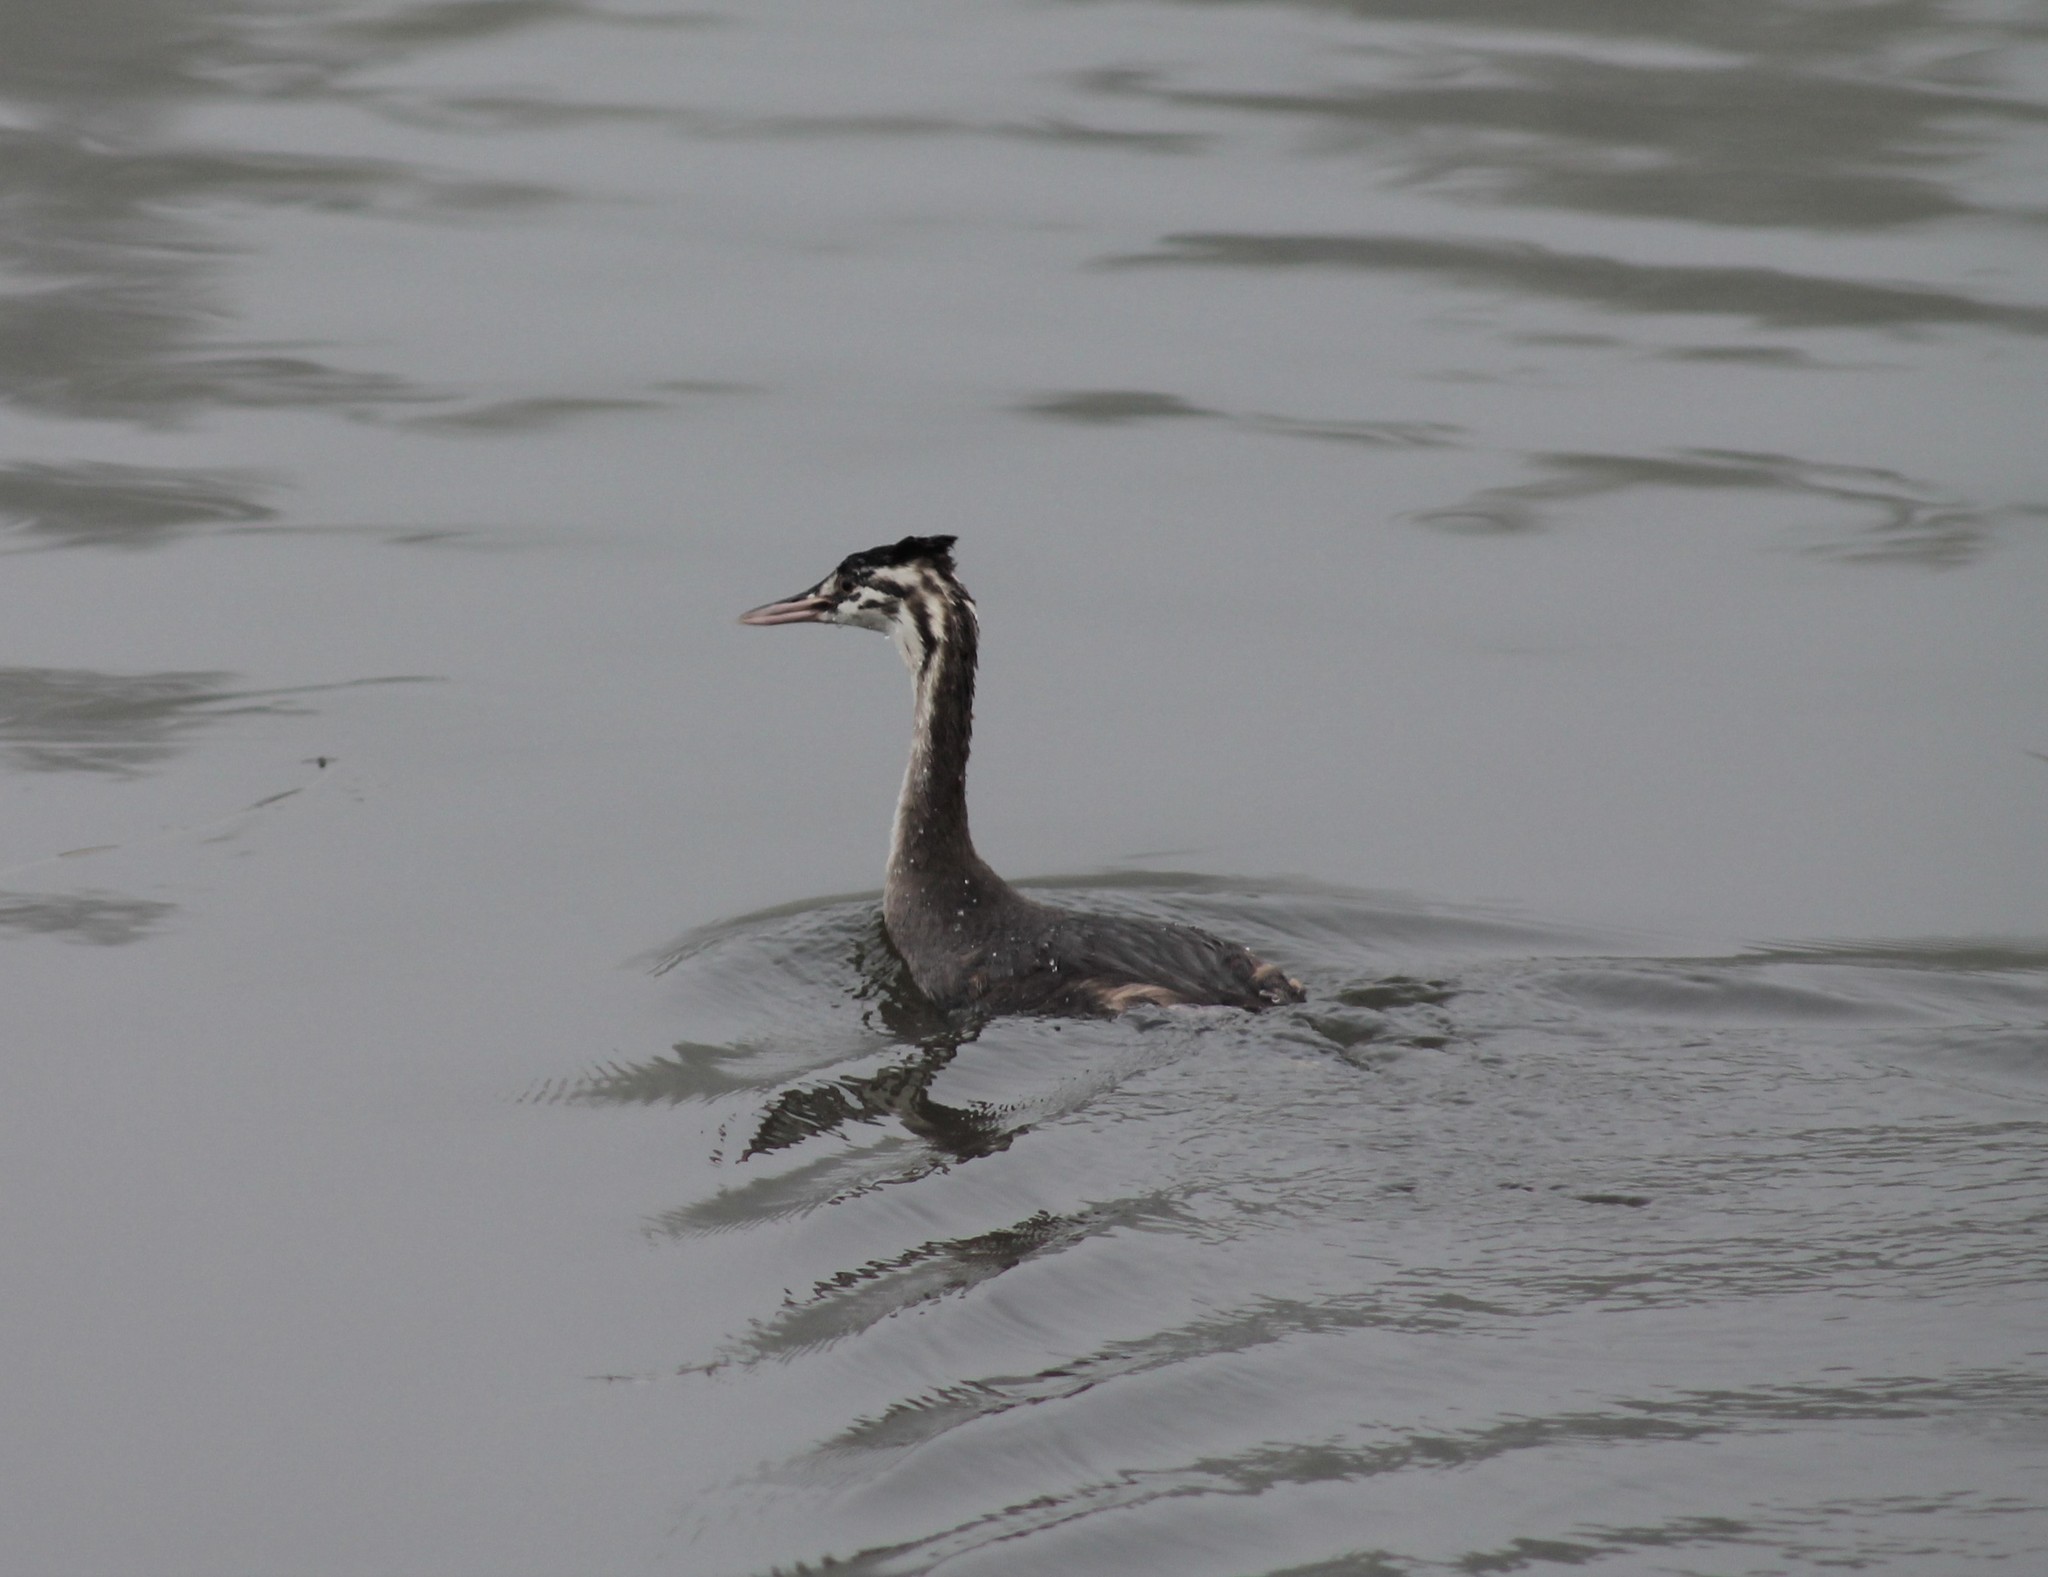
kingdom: Animalia
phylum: Chordata
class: Aves
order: Podicipediformes
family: Podicipedidae
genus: Podiceps
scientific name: Podiceps cristatus
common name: Great crested grebe
